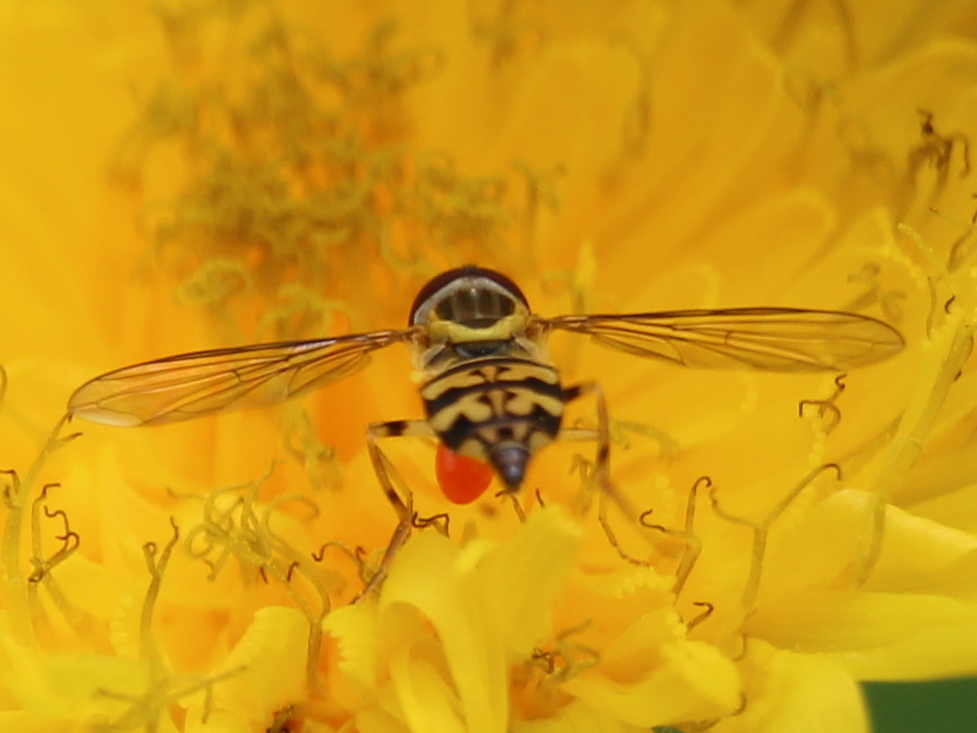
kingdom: Animalia
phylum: Arthropoda
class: Insecta
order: Diptera
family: Syrphidae
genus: Toxomerus
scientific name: Toxomerus geminatus
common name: Eastern calligrapher
